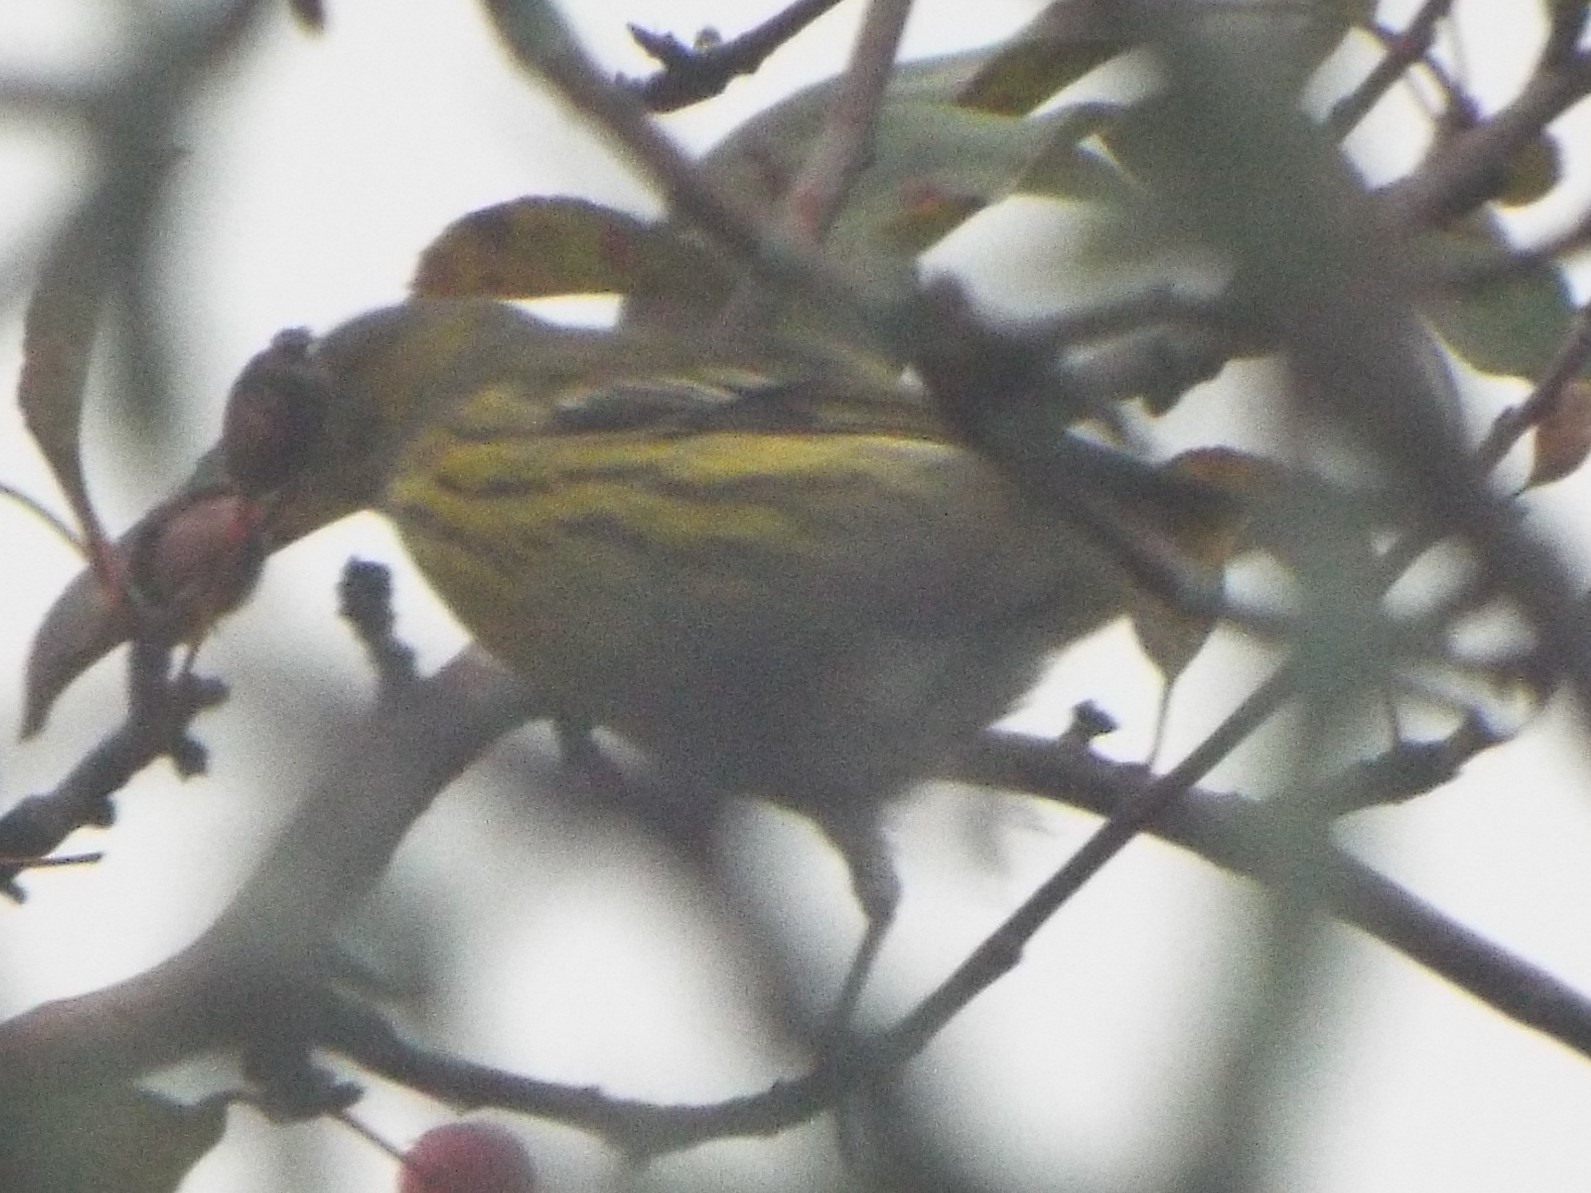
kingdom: Animalia
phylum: Chordata
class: Aves
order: Passeriformes
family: Parulidae
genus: Setophaga
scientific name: Setophaga tigrina
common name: Cape may warbler
